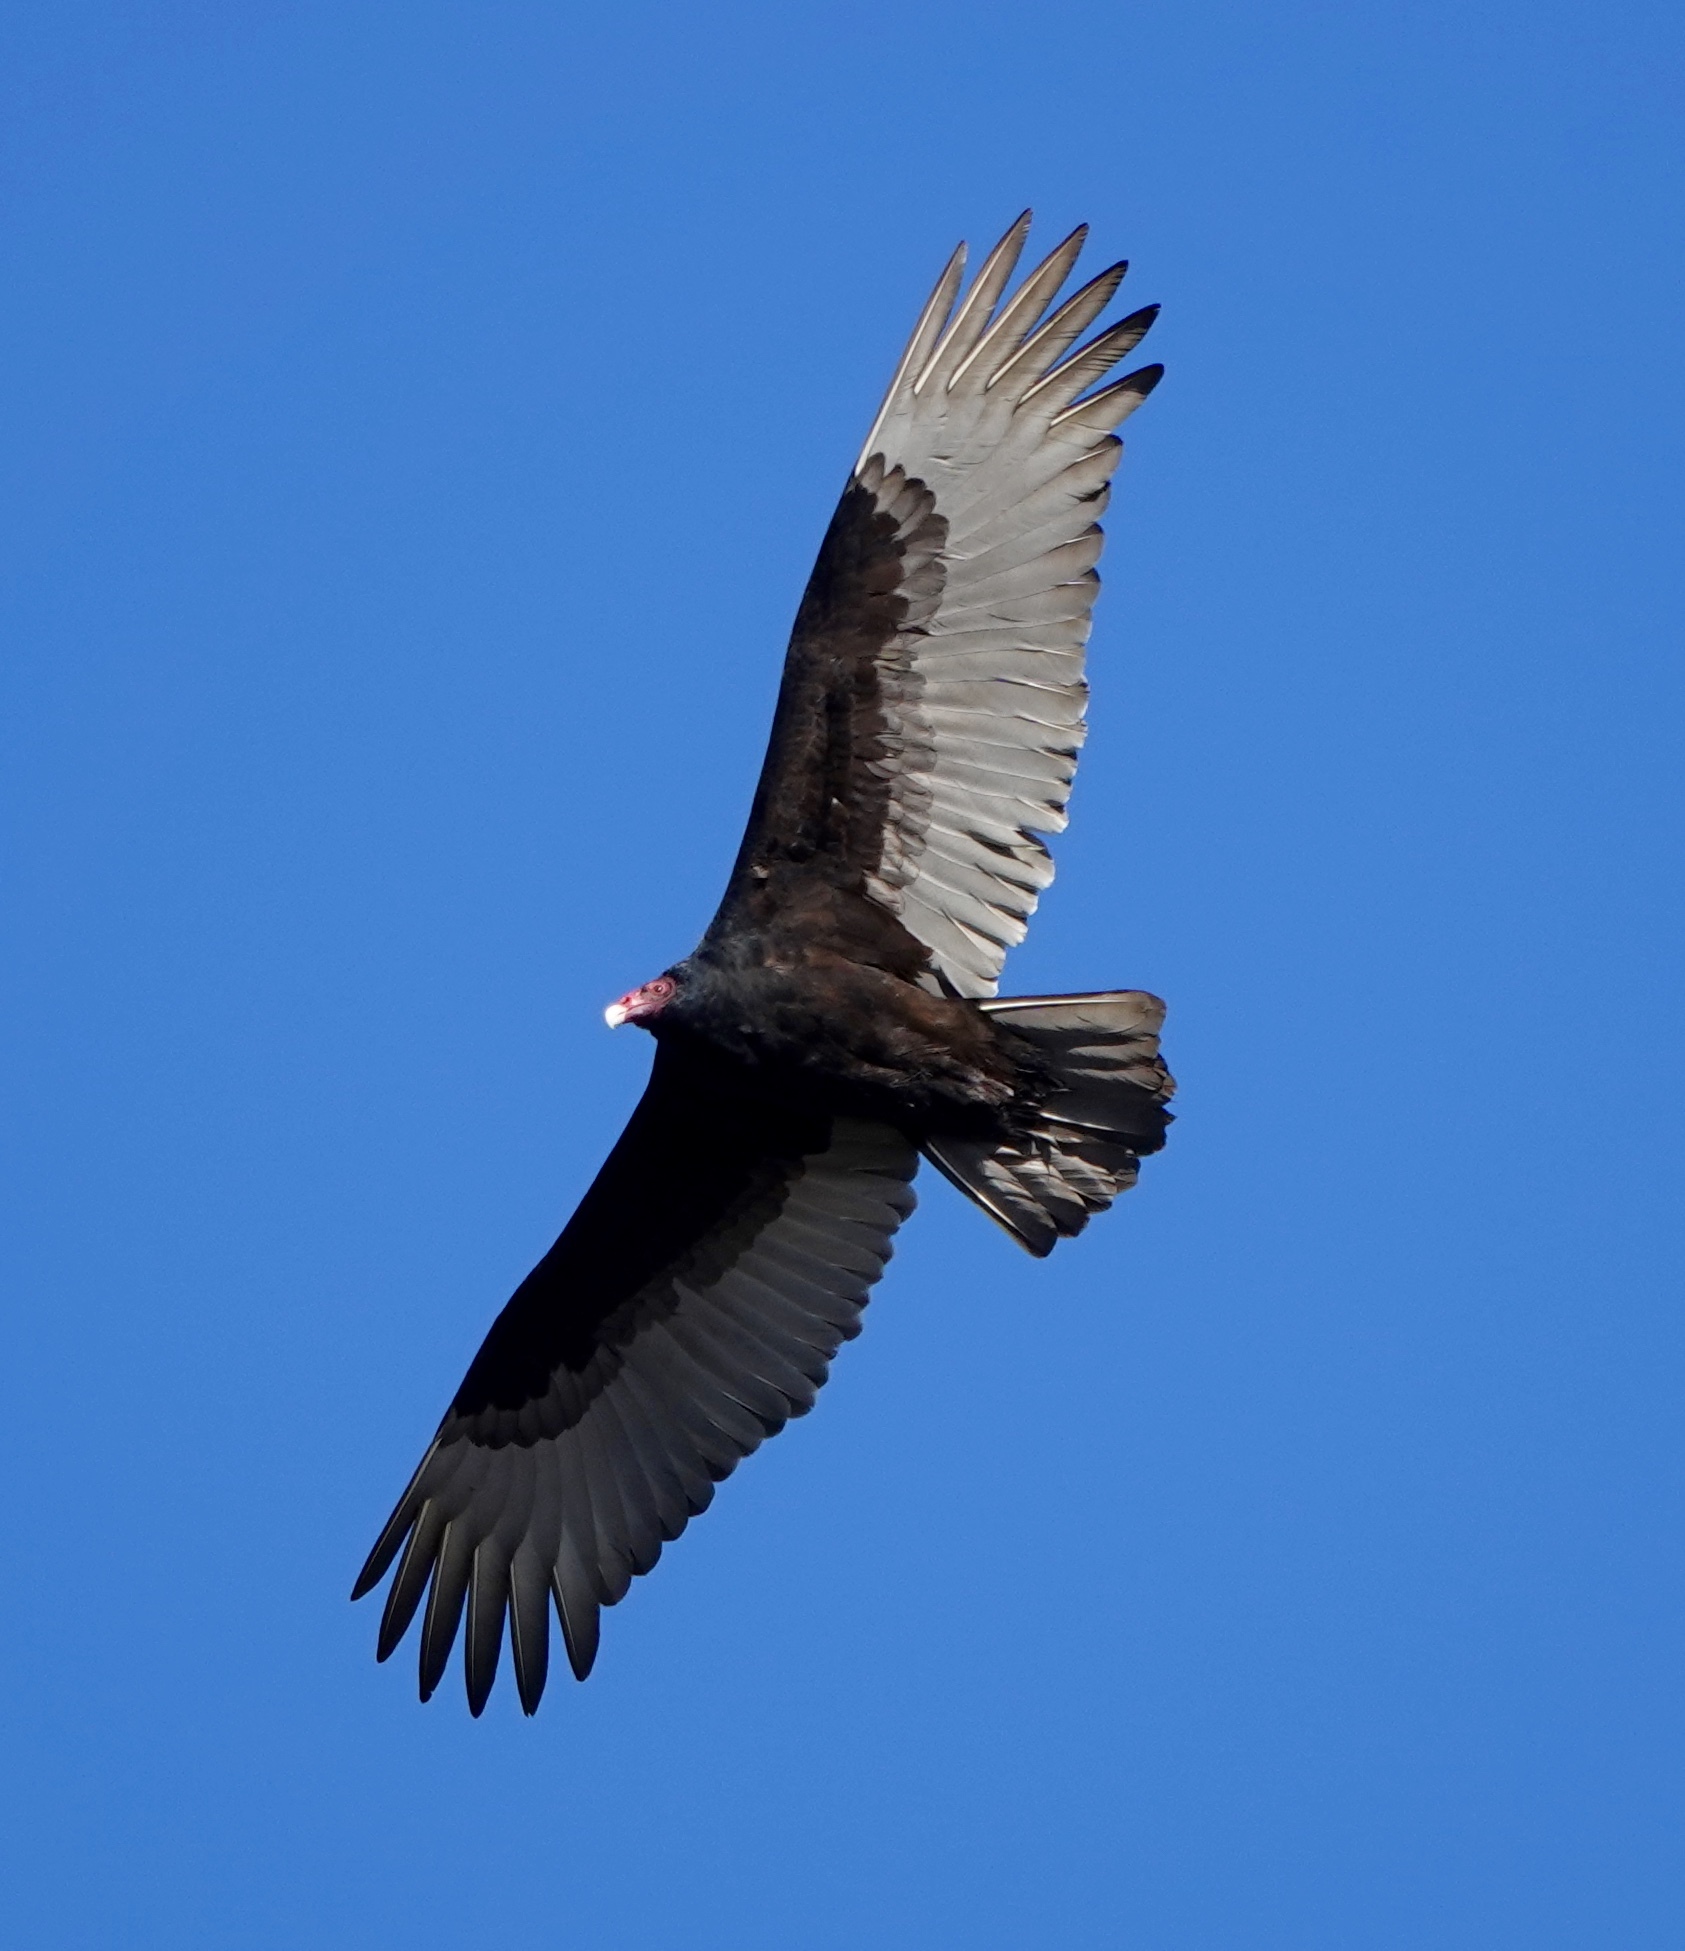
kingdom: Animalia
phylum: Chordata
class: Aves
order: Accipitriformes
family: Cathartidae
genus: Cathartes
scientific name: Cathartes aura
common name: Turkey vulture
